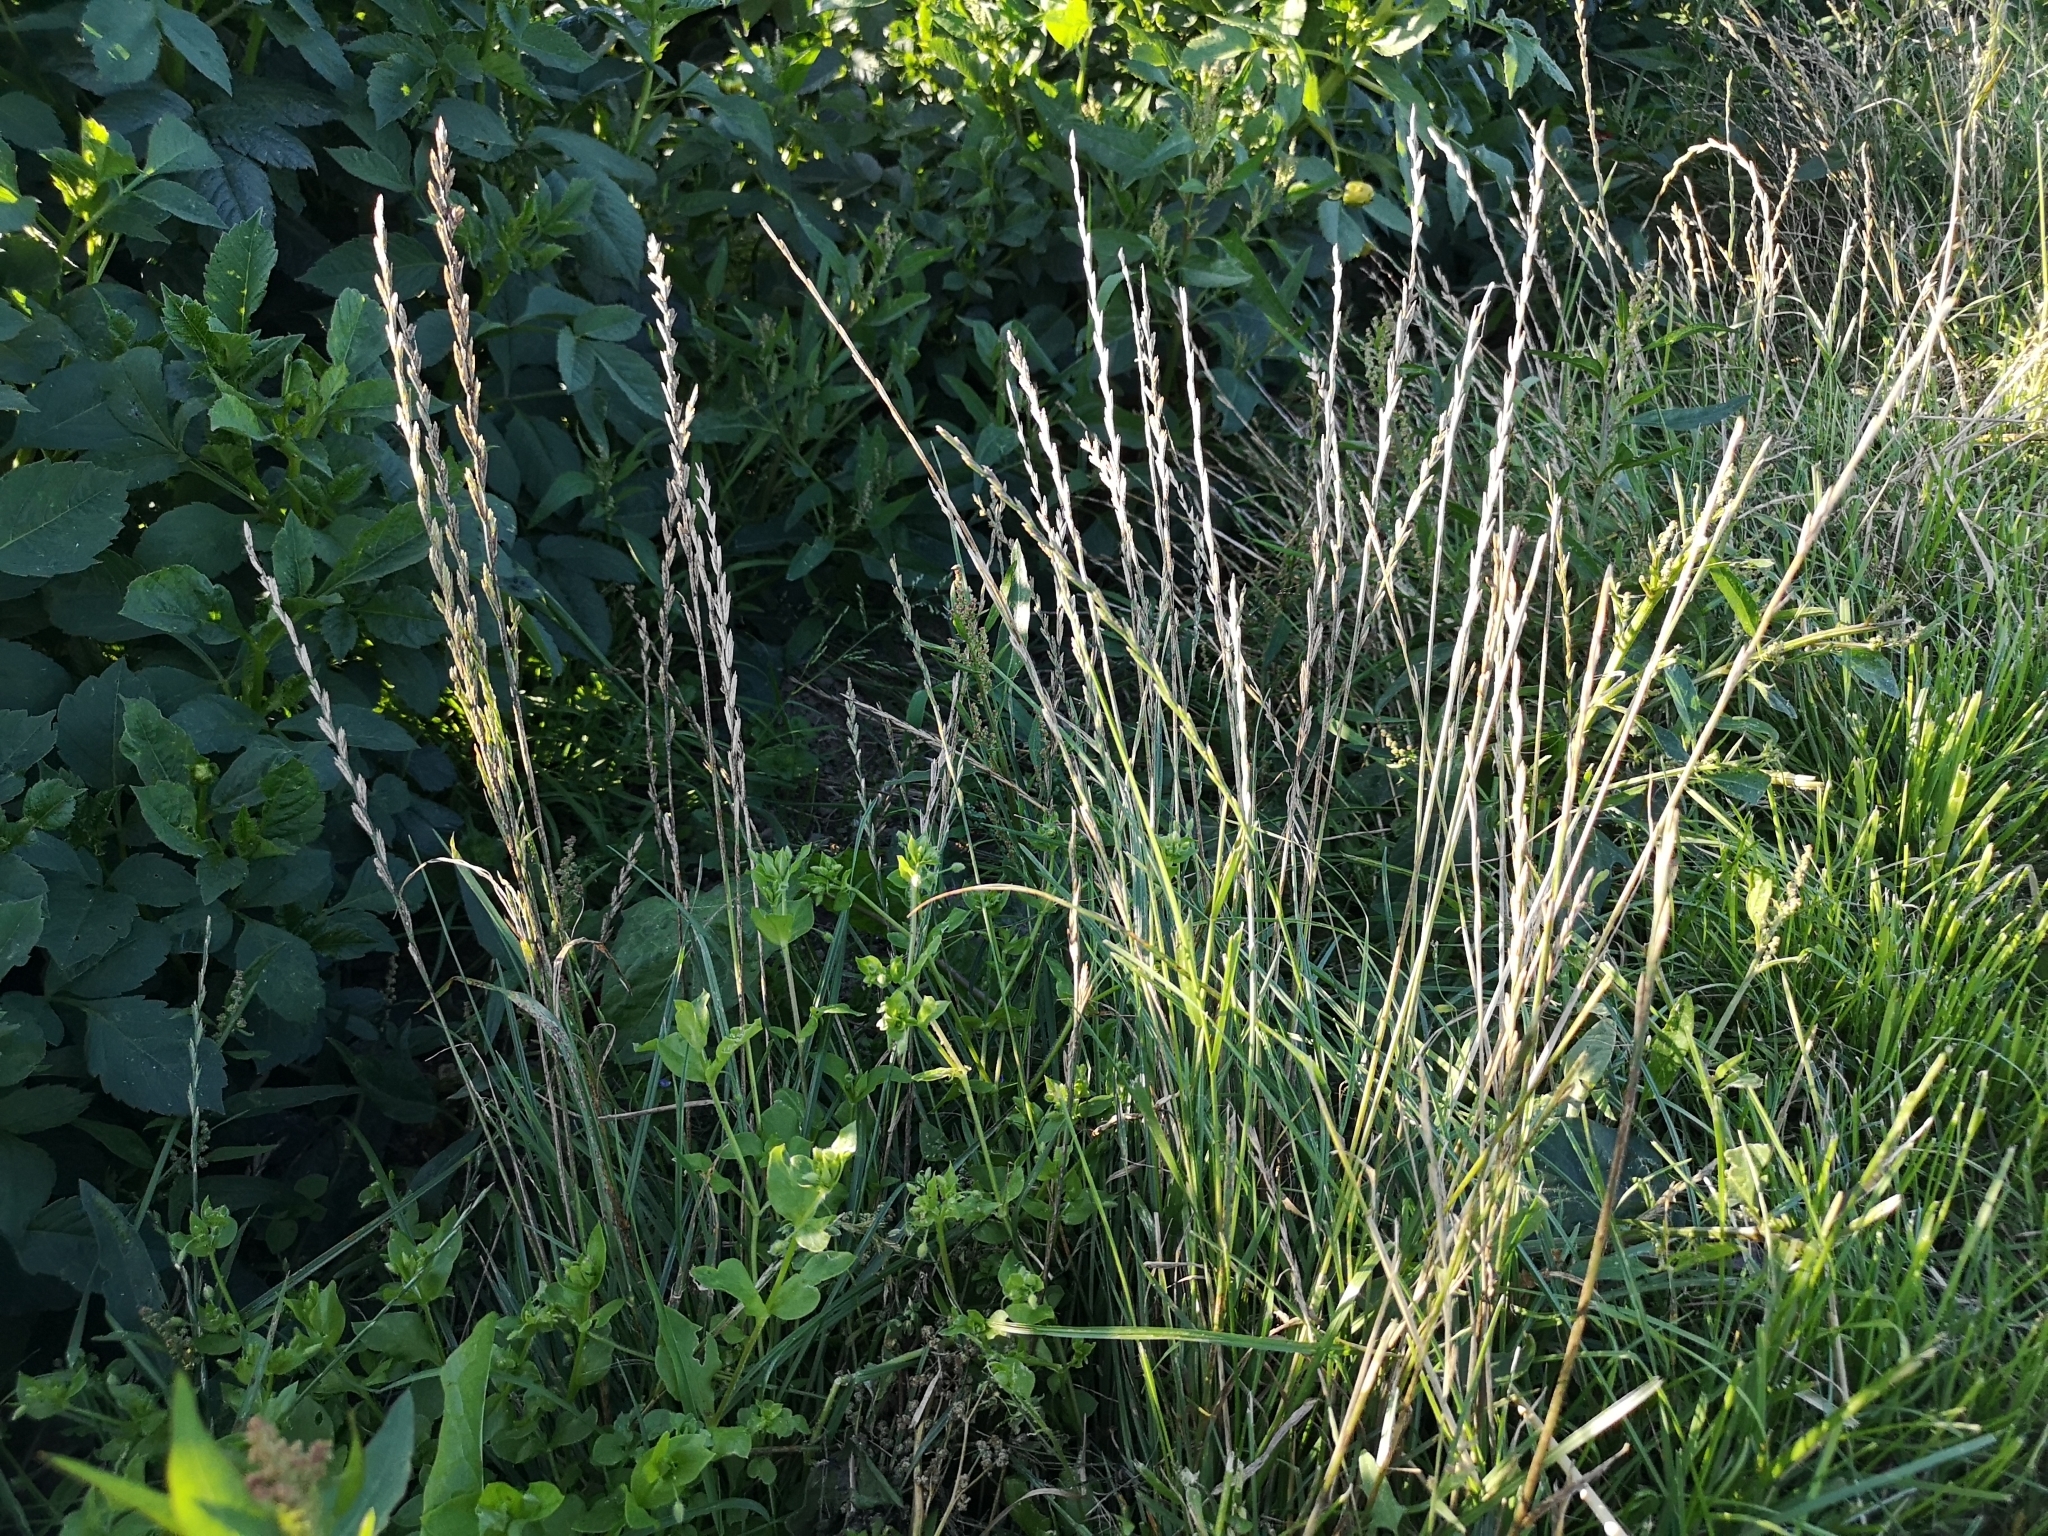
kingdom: Plantae
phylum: Tracheophyta
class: Liliopsida
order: Poales
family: Poaceae
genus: Lolium
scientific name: Lolium perenne
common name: Perennial ryegrass
